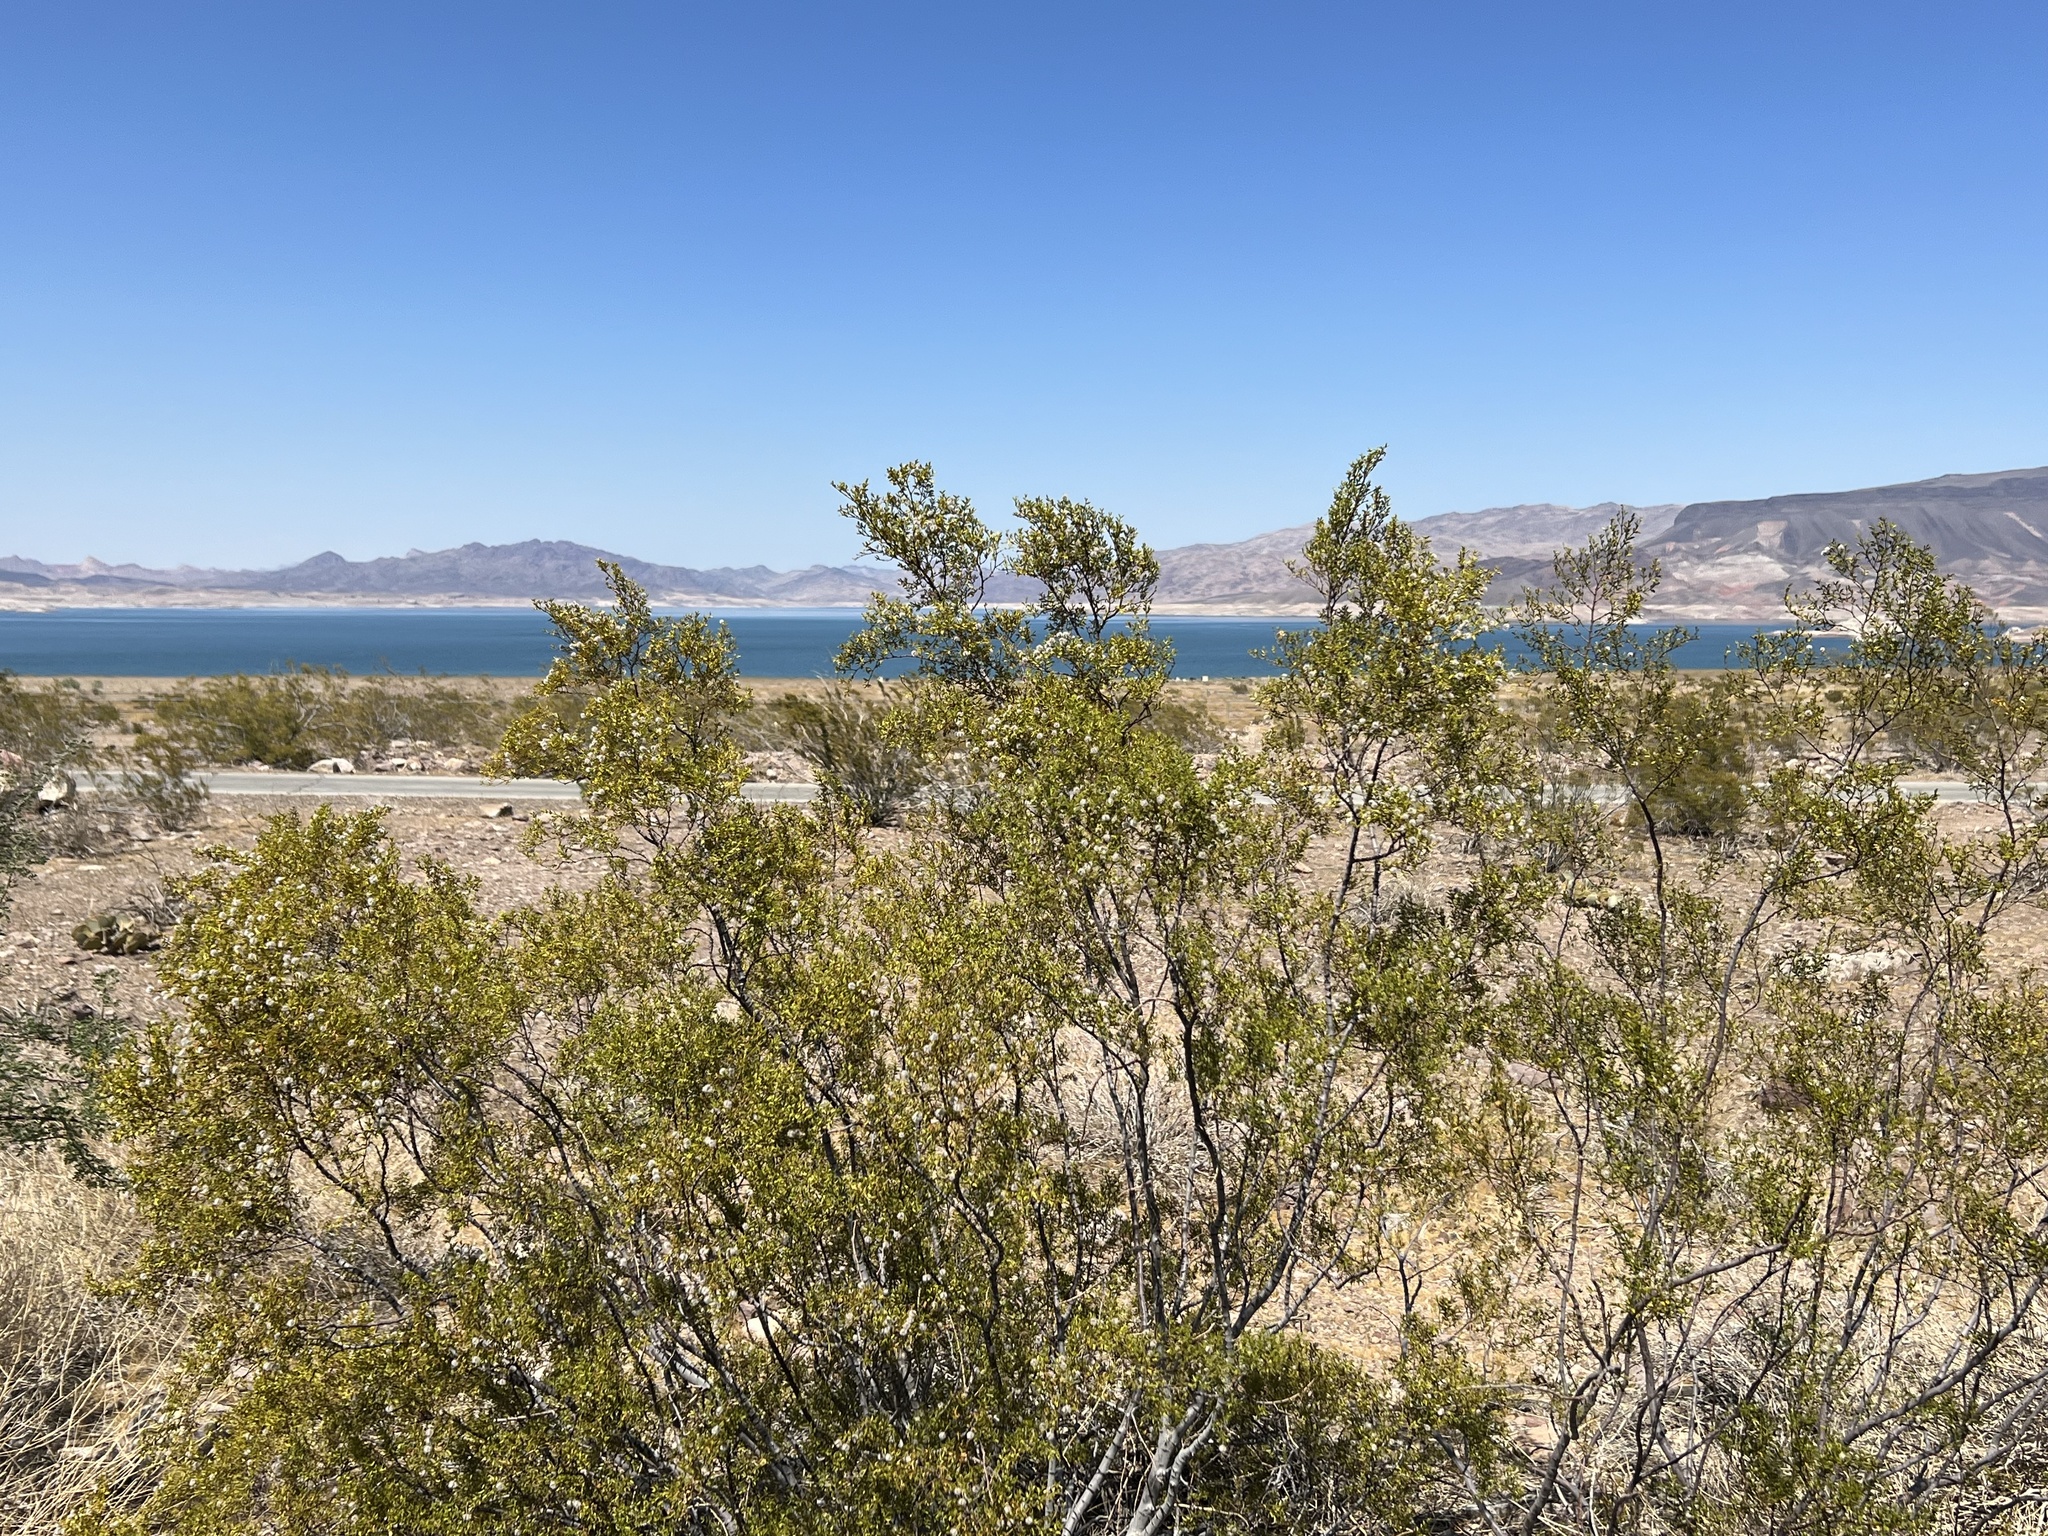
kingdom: Plantae
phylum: Tracheophyta
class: Magnoliopsida
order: Zygophyllales
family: Zygophyllaceae
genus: Larrea
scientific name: Larrea tridentata
